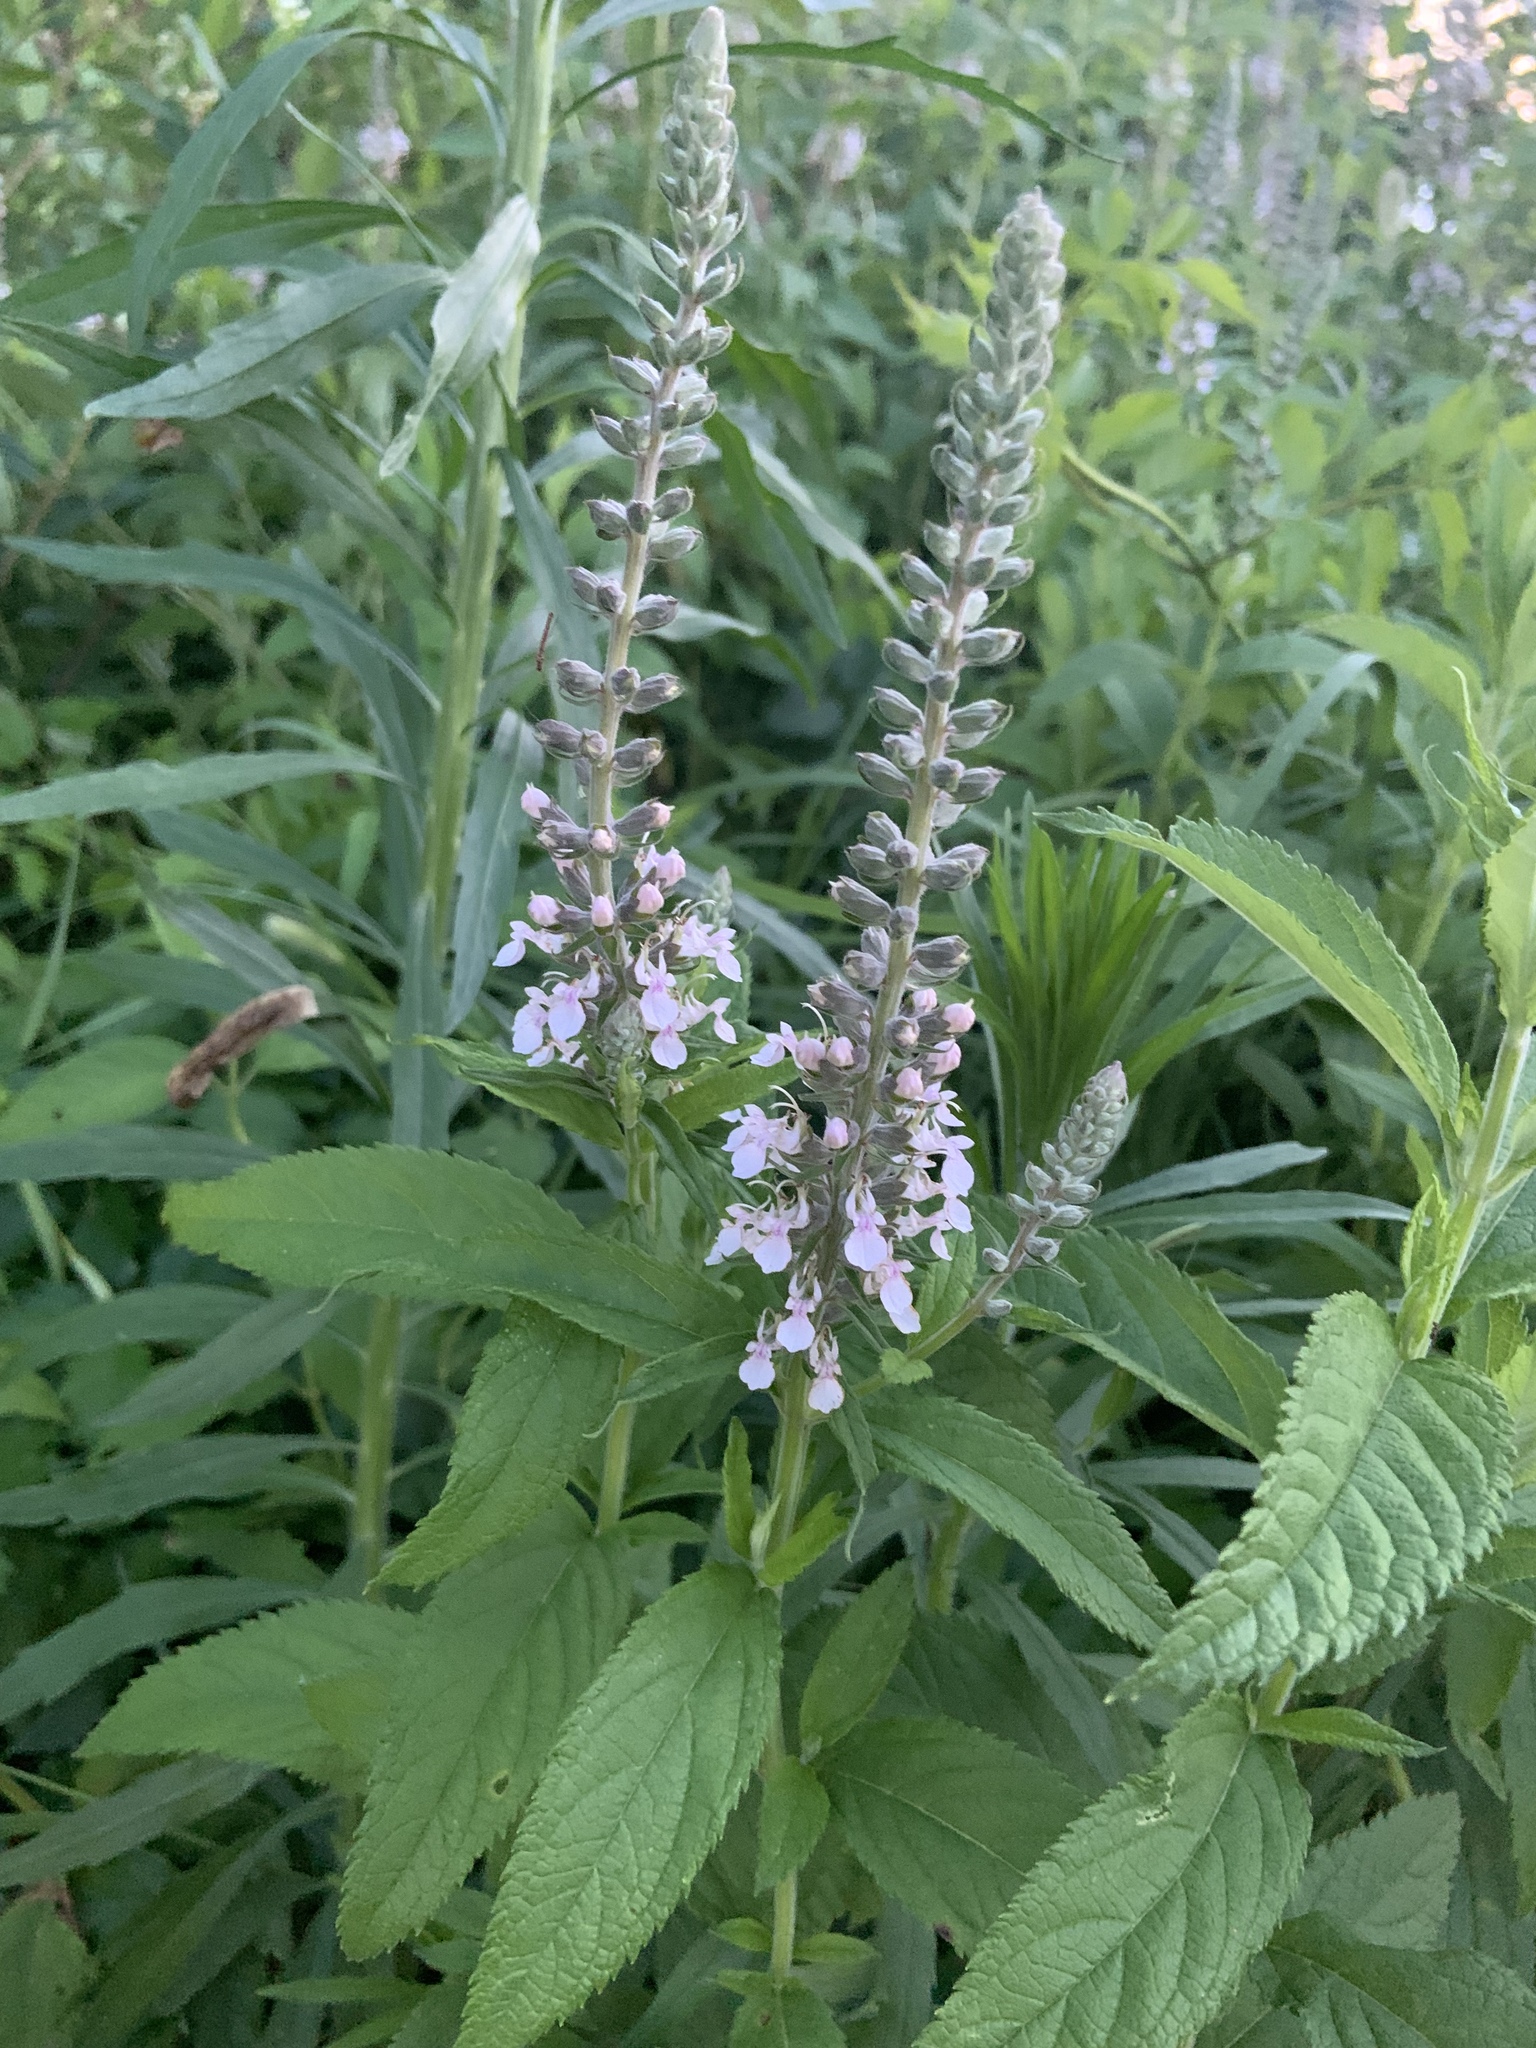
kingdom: Plantae
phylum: Tracheophyta
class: Magnoliopsida
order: Lamiales
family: Lamiaceae
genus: Teucrium
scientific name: Teucrium canadense
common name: American germander
